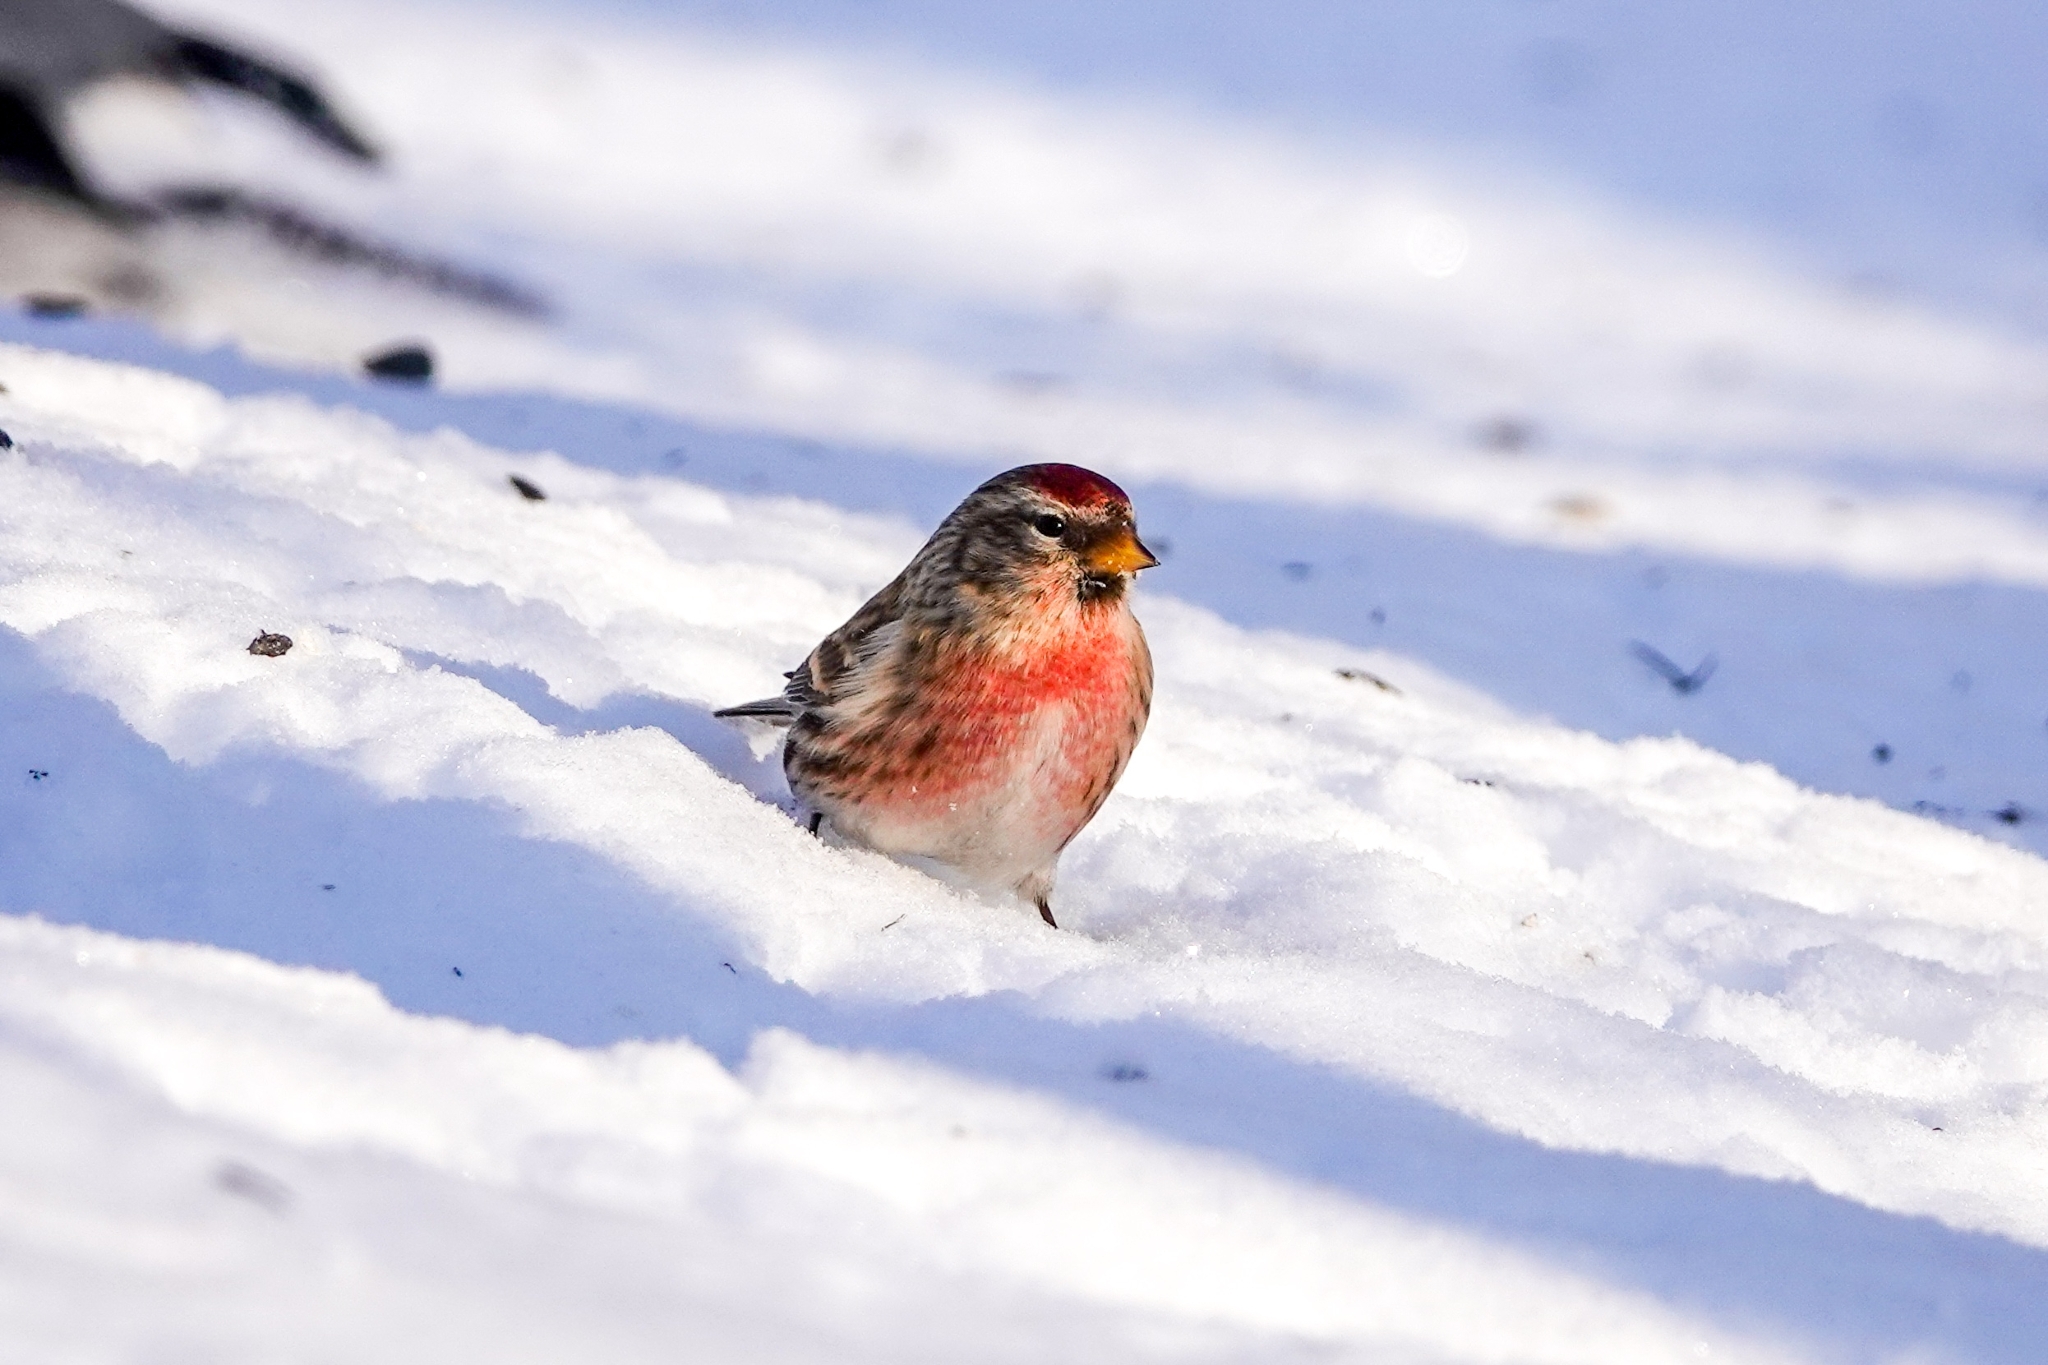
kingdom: Animalia
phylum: Chordata
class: Aves
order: Passeriformes
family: Fringillidae
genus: Acanthis
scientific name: Acanthis flammea
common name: Common redpoll
